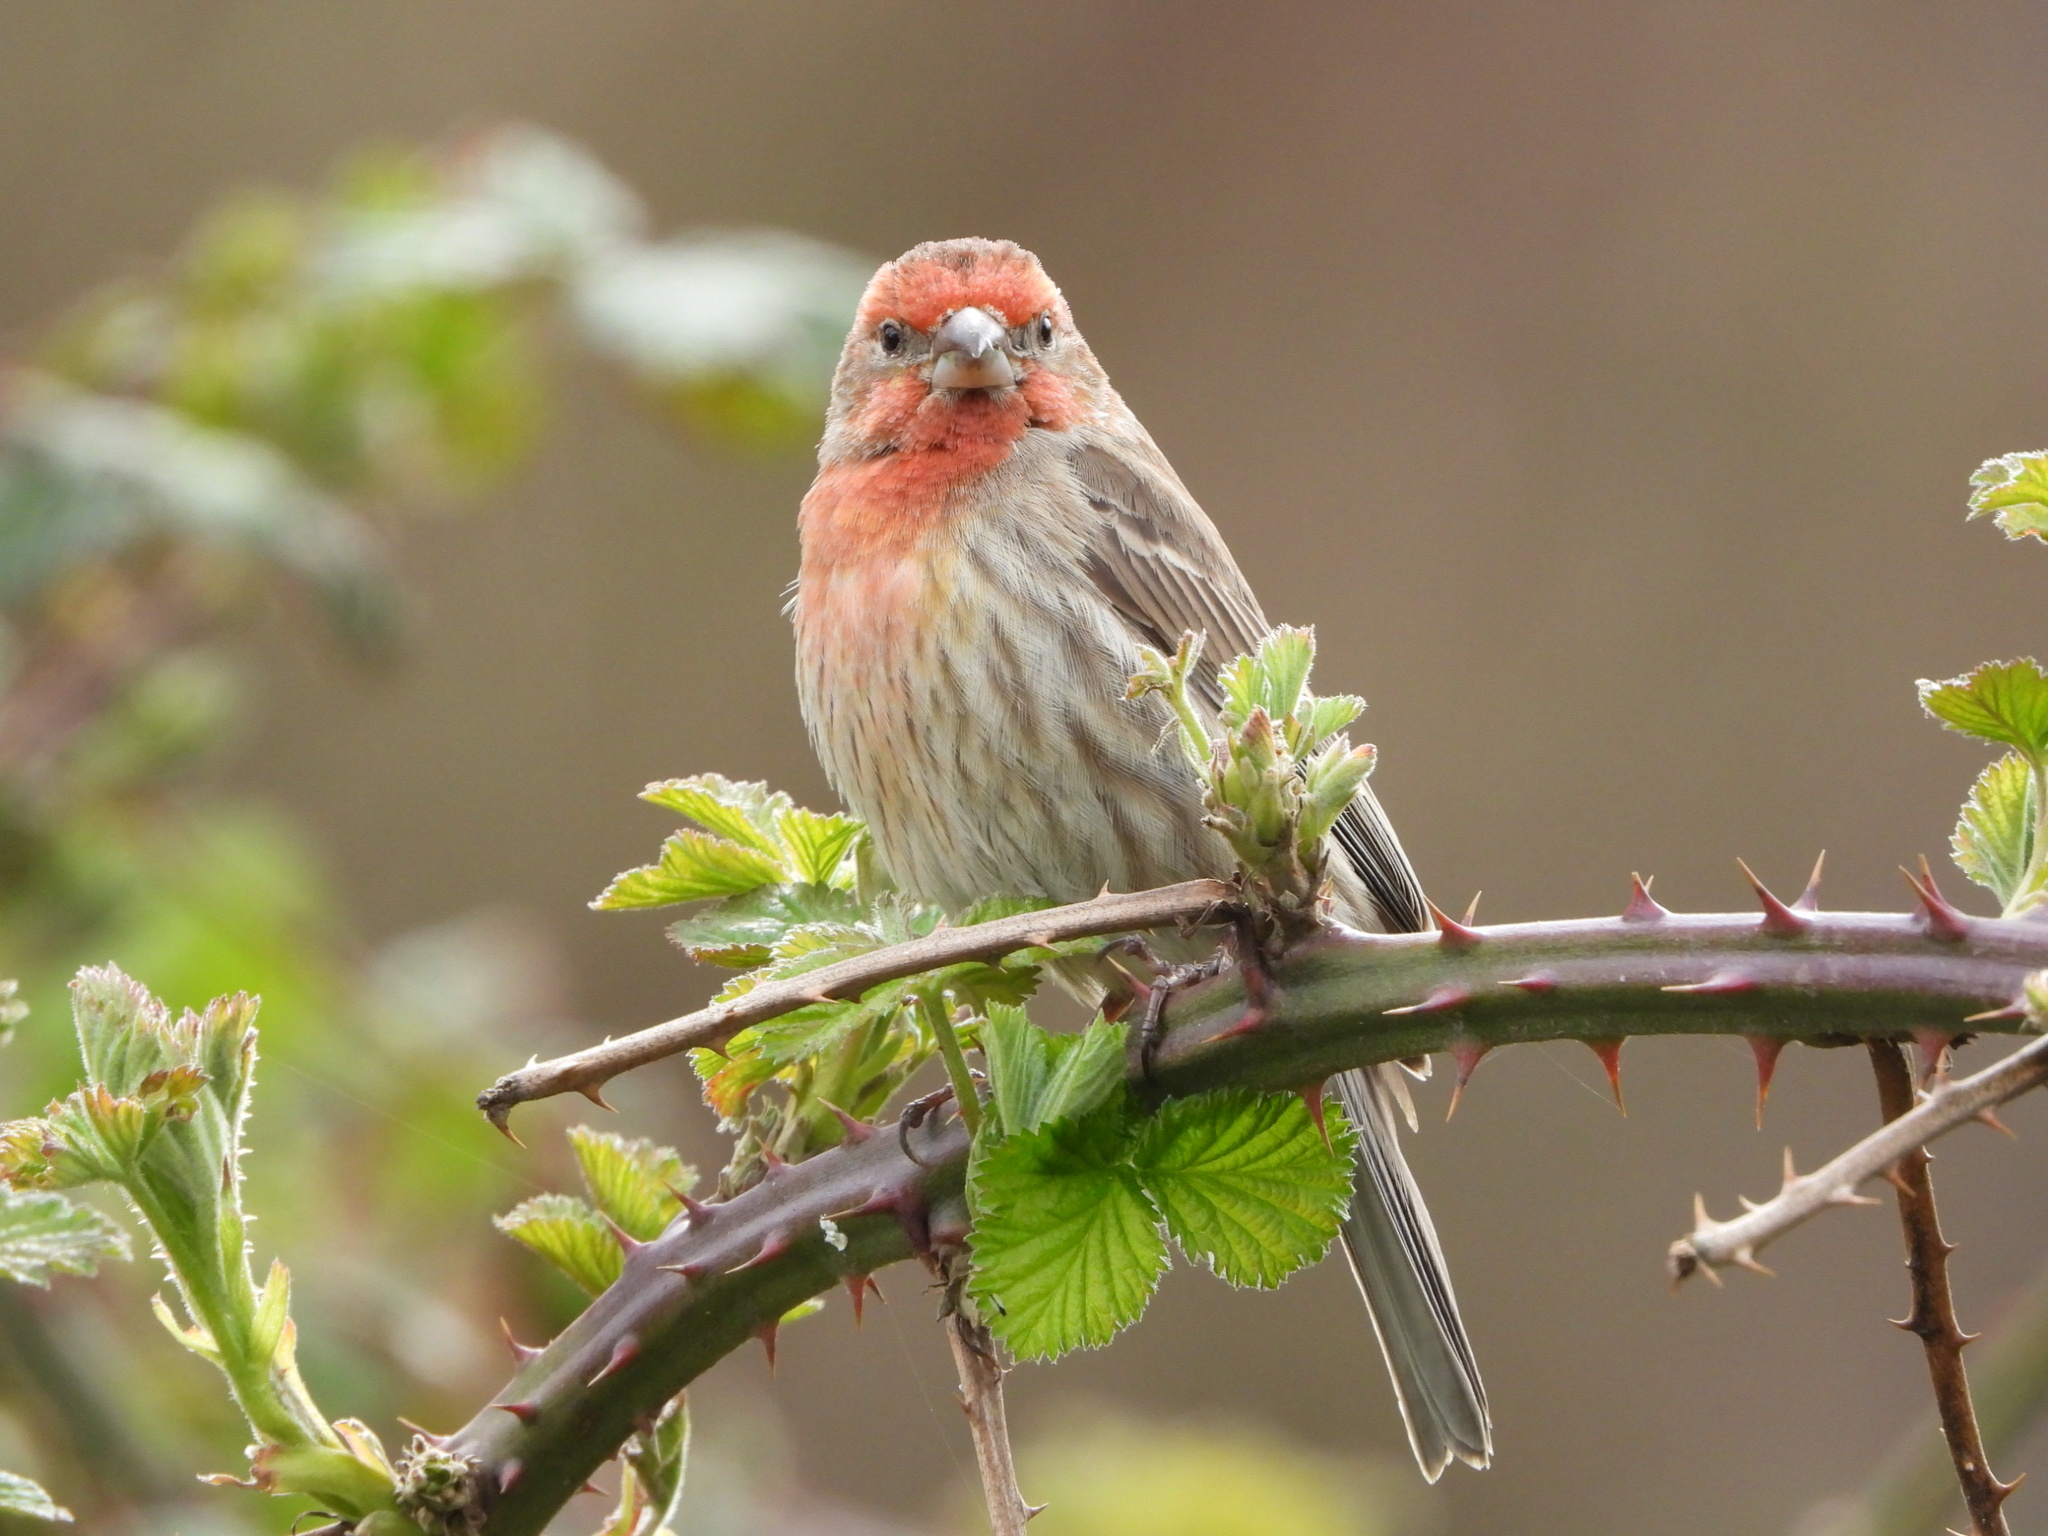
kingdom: Animalia
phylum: Chordata
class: Aves
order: Passeriformes
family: Fringillidae
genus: Haemorhous
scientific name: Haemorhous mexicanus
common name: House finch
